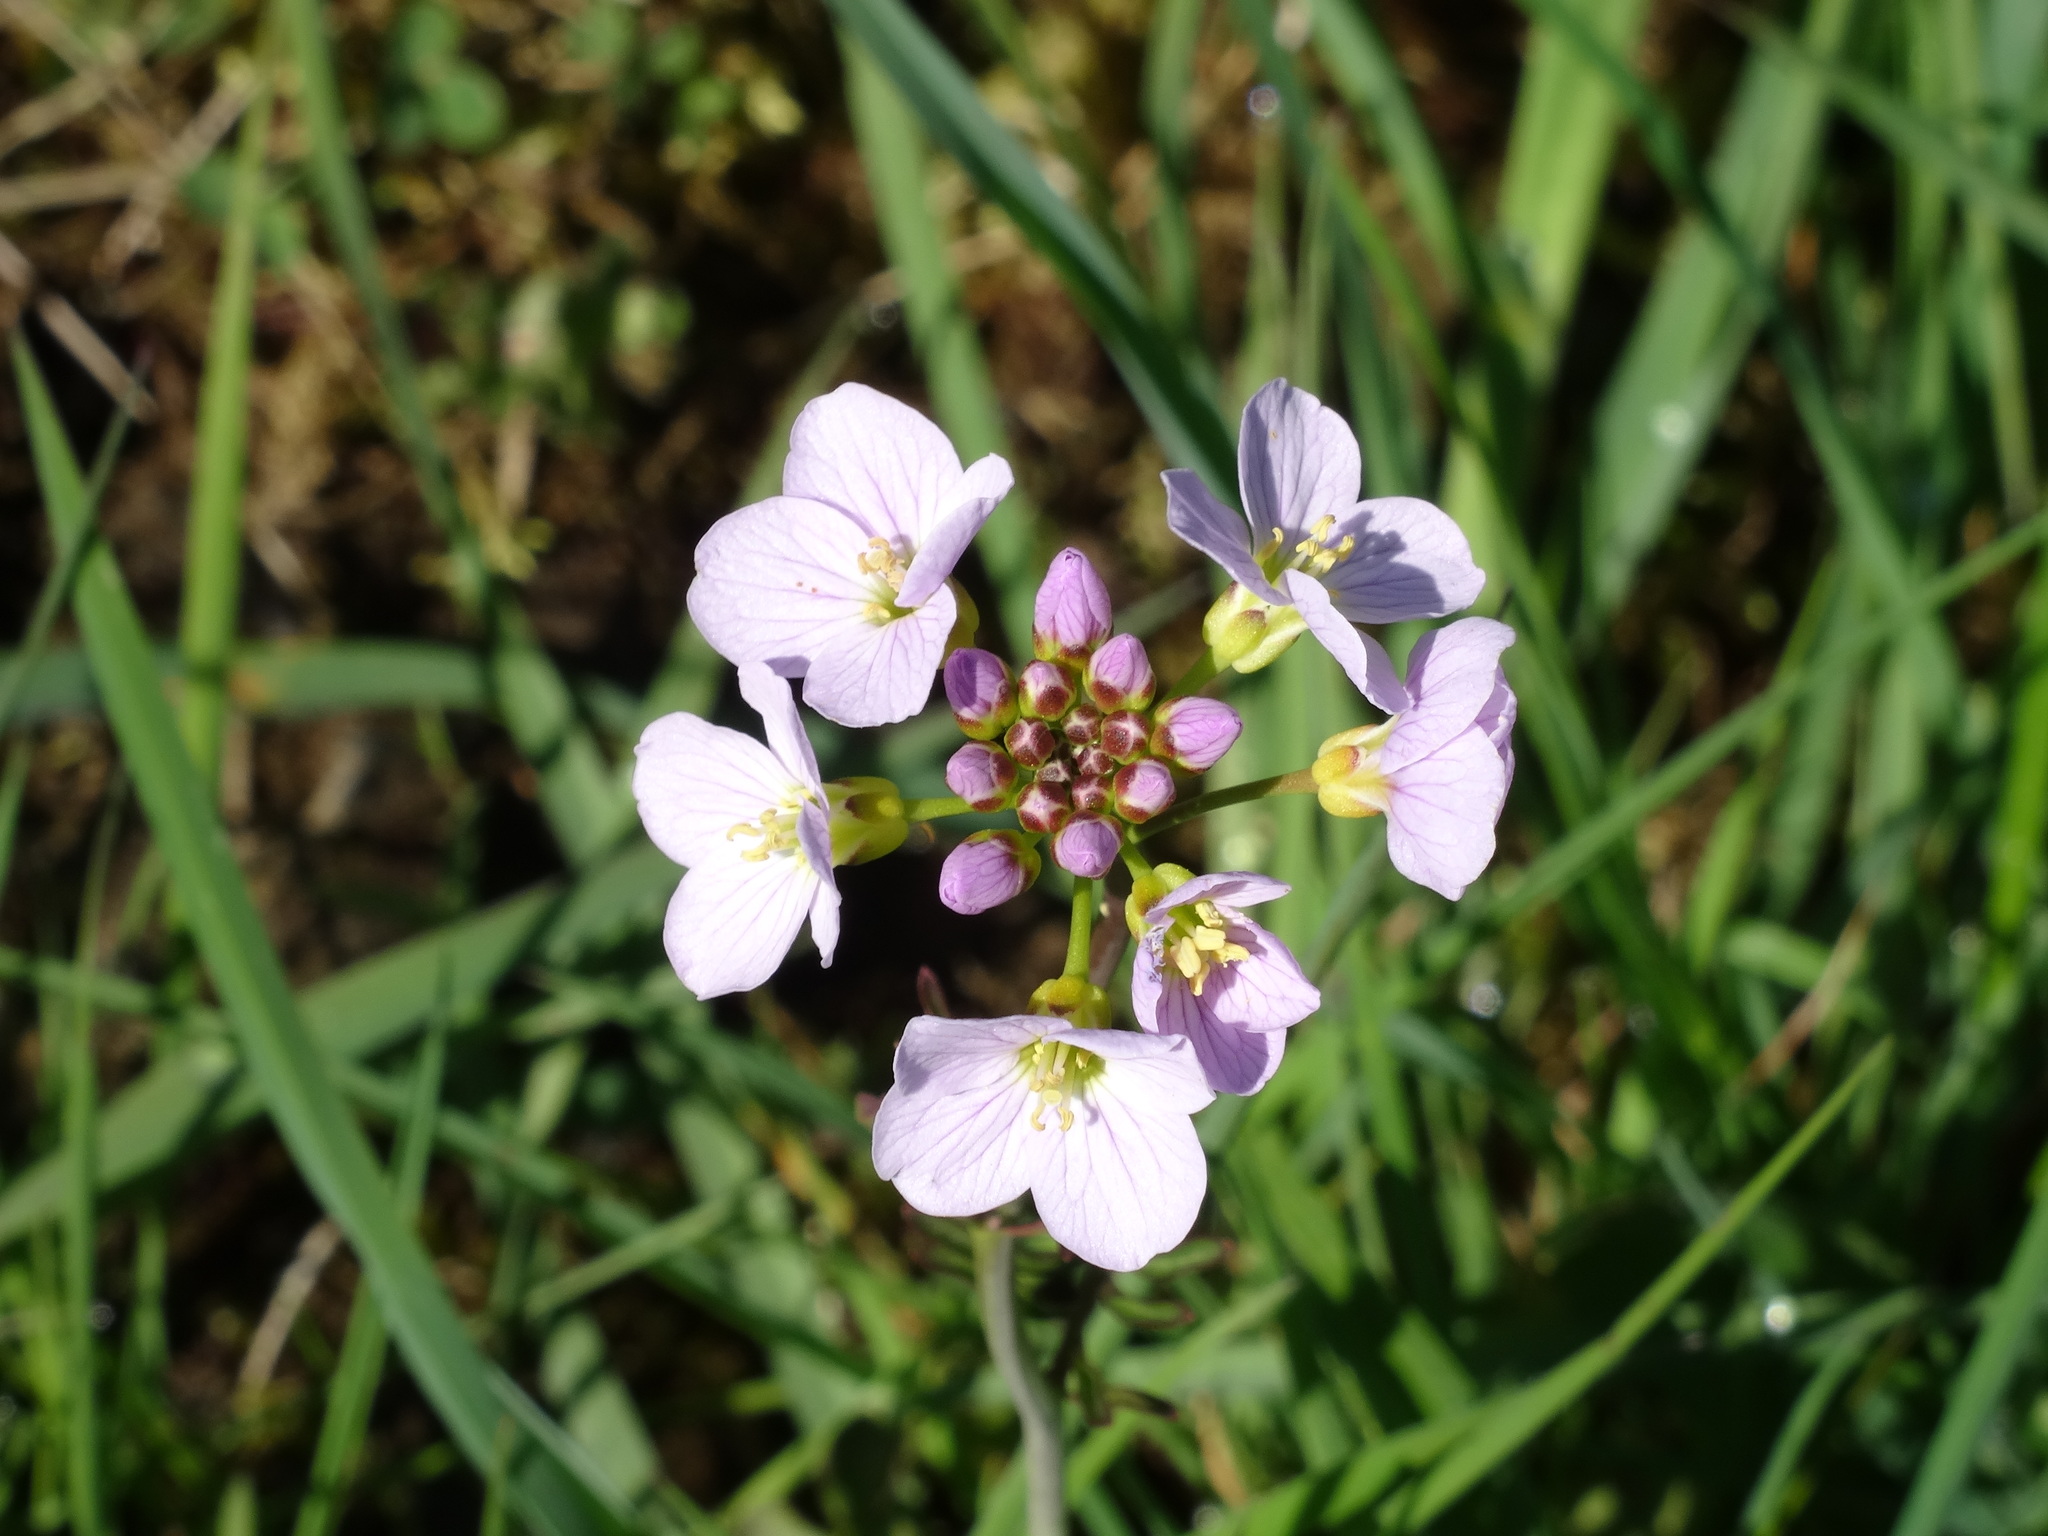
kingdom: Plantae
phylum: Tracheophyta
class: Magnoliopsida
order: Brassicales
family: Brassicaceae
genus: Cardamine
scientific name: Cardamine pratensis
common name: Cuckoo flower
